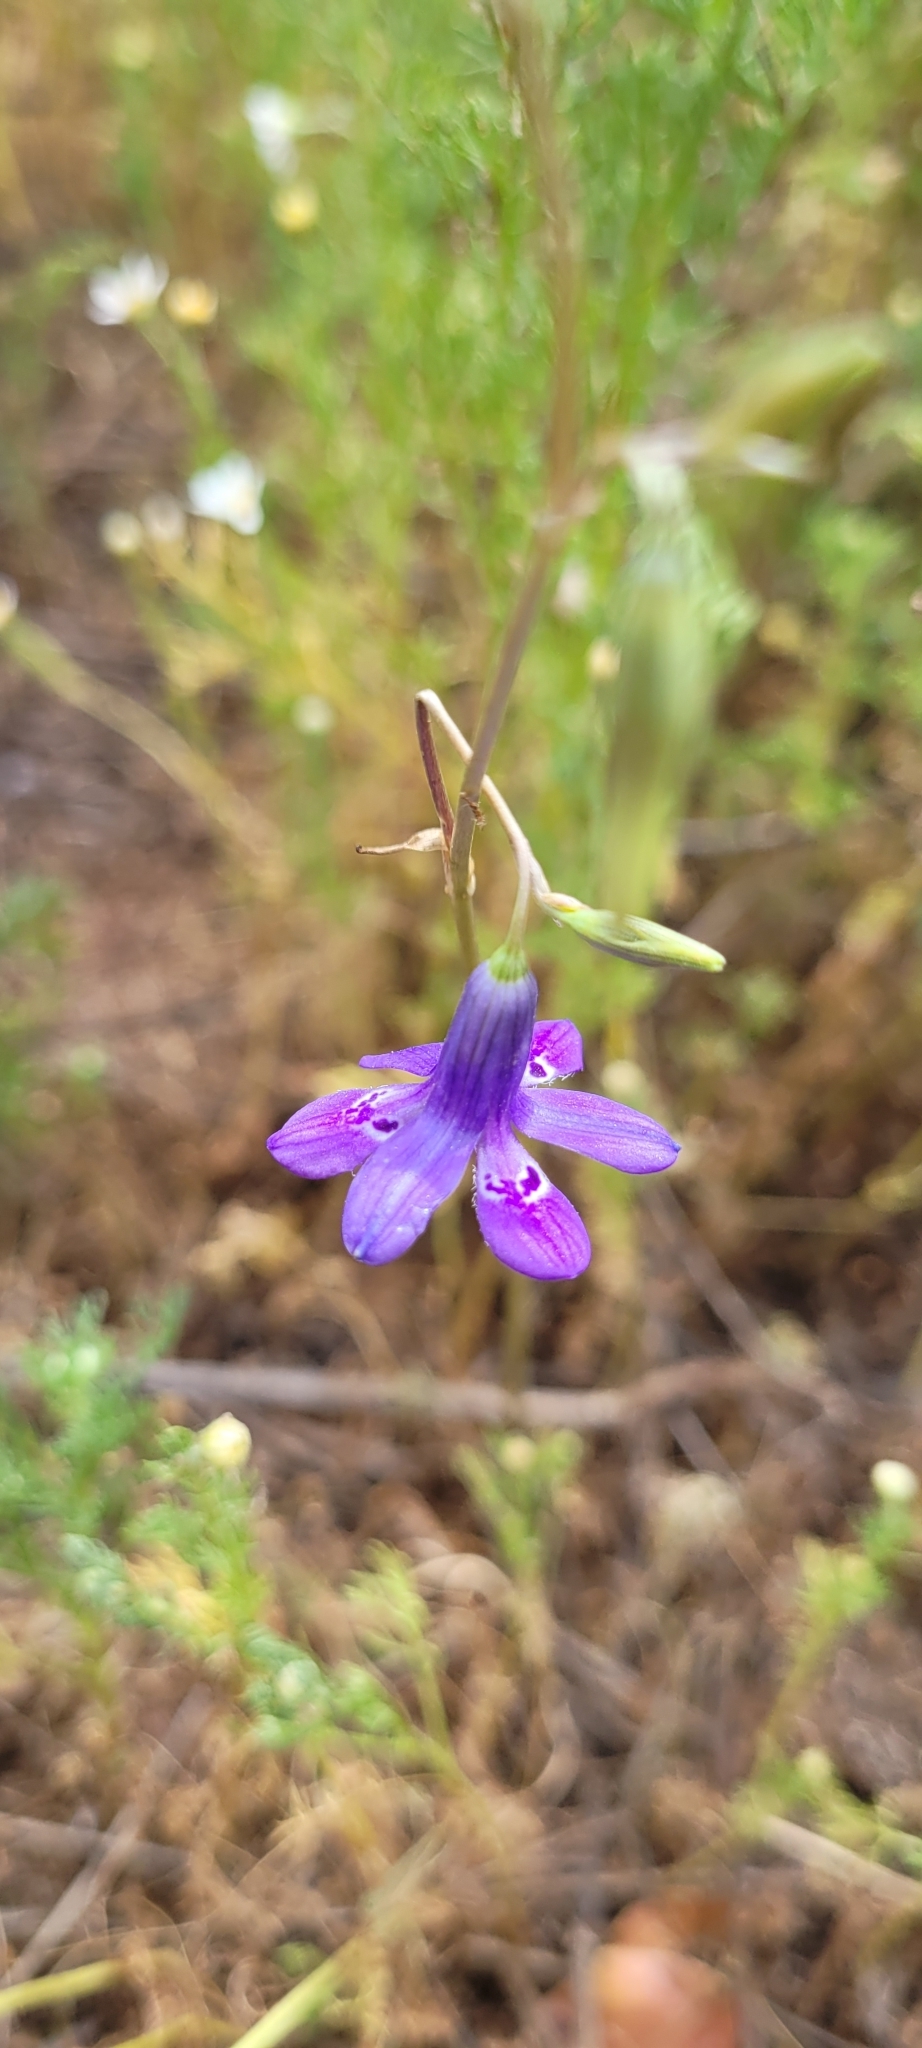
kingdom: Plantae
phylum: Tracheophyta
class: Liliopsida
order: Asparagales
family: Tecophilaeaceae
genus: Conanthera
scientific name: Conanthera trimaculata
